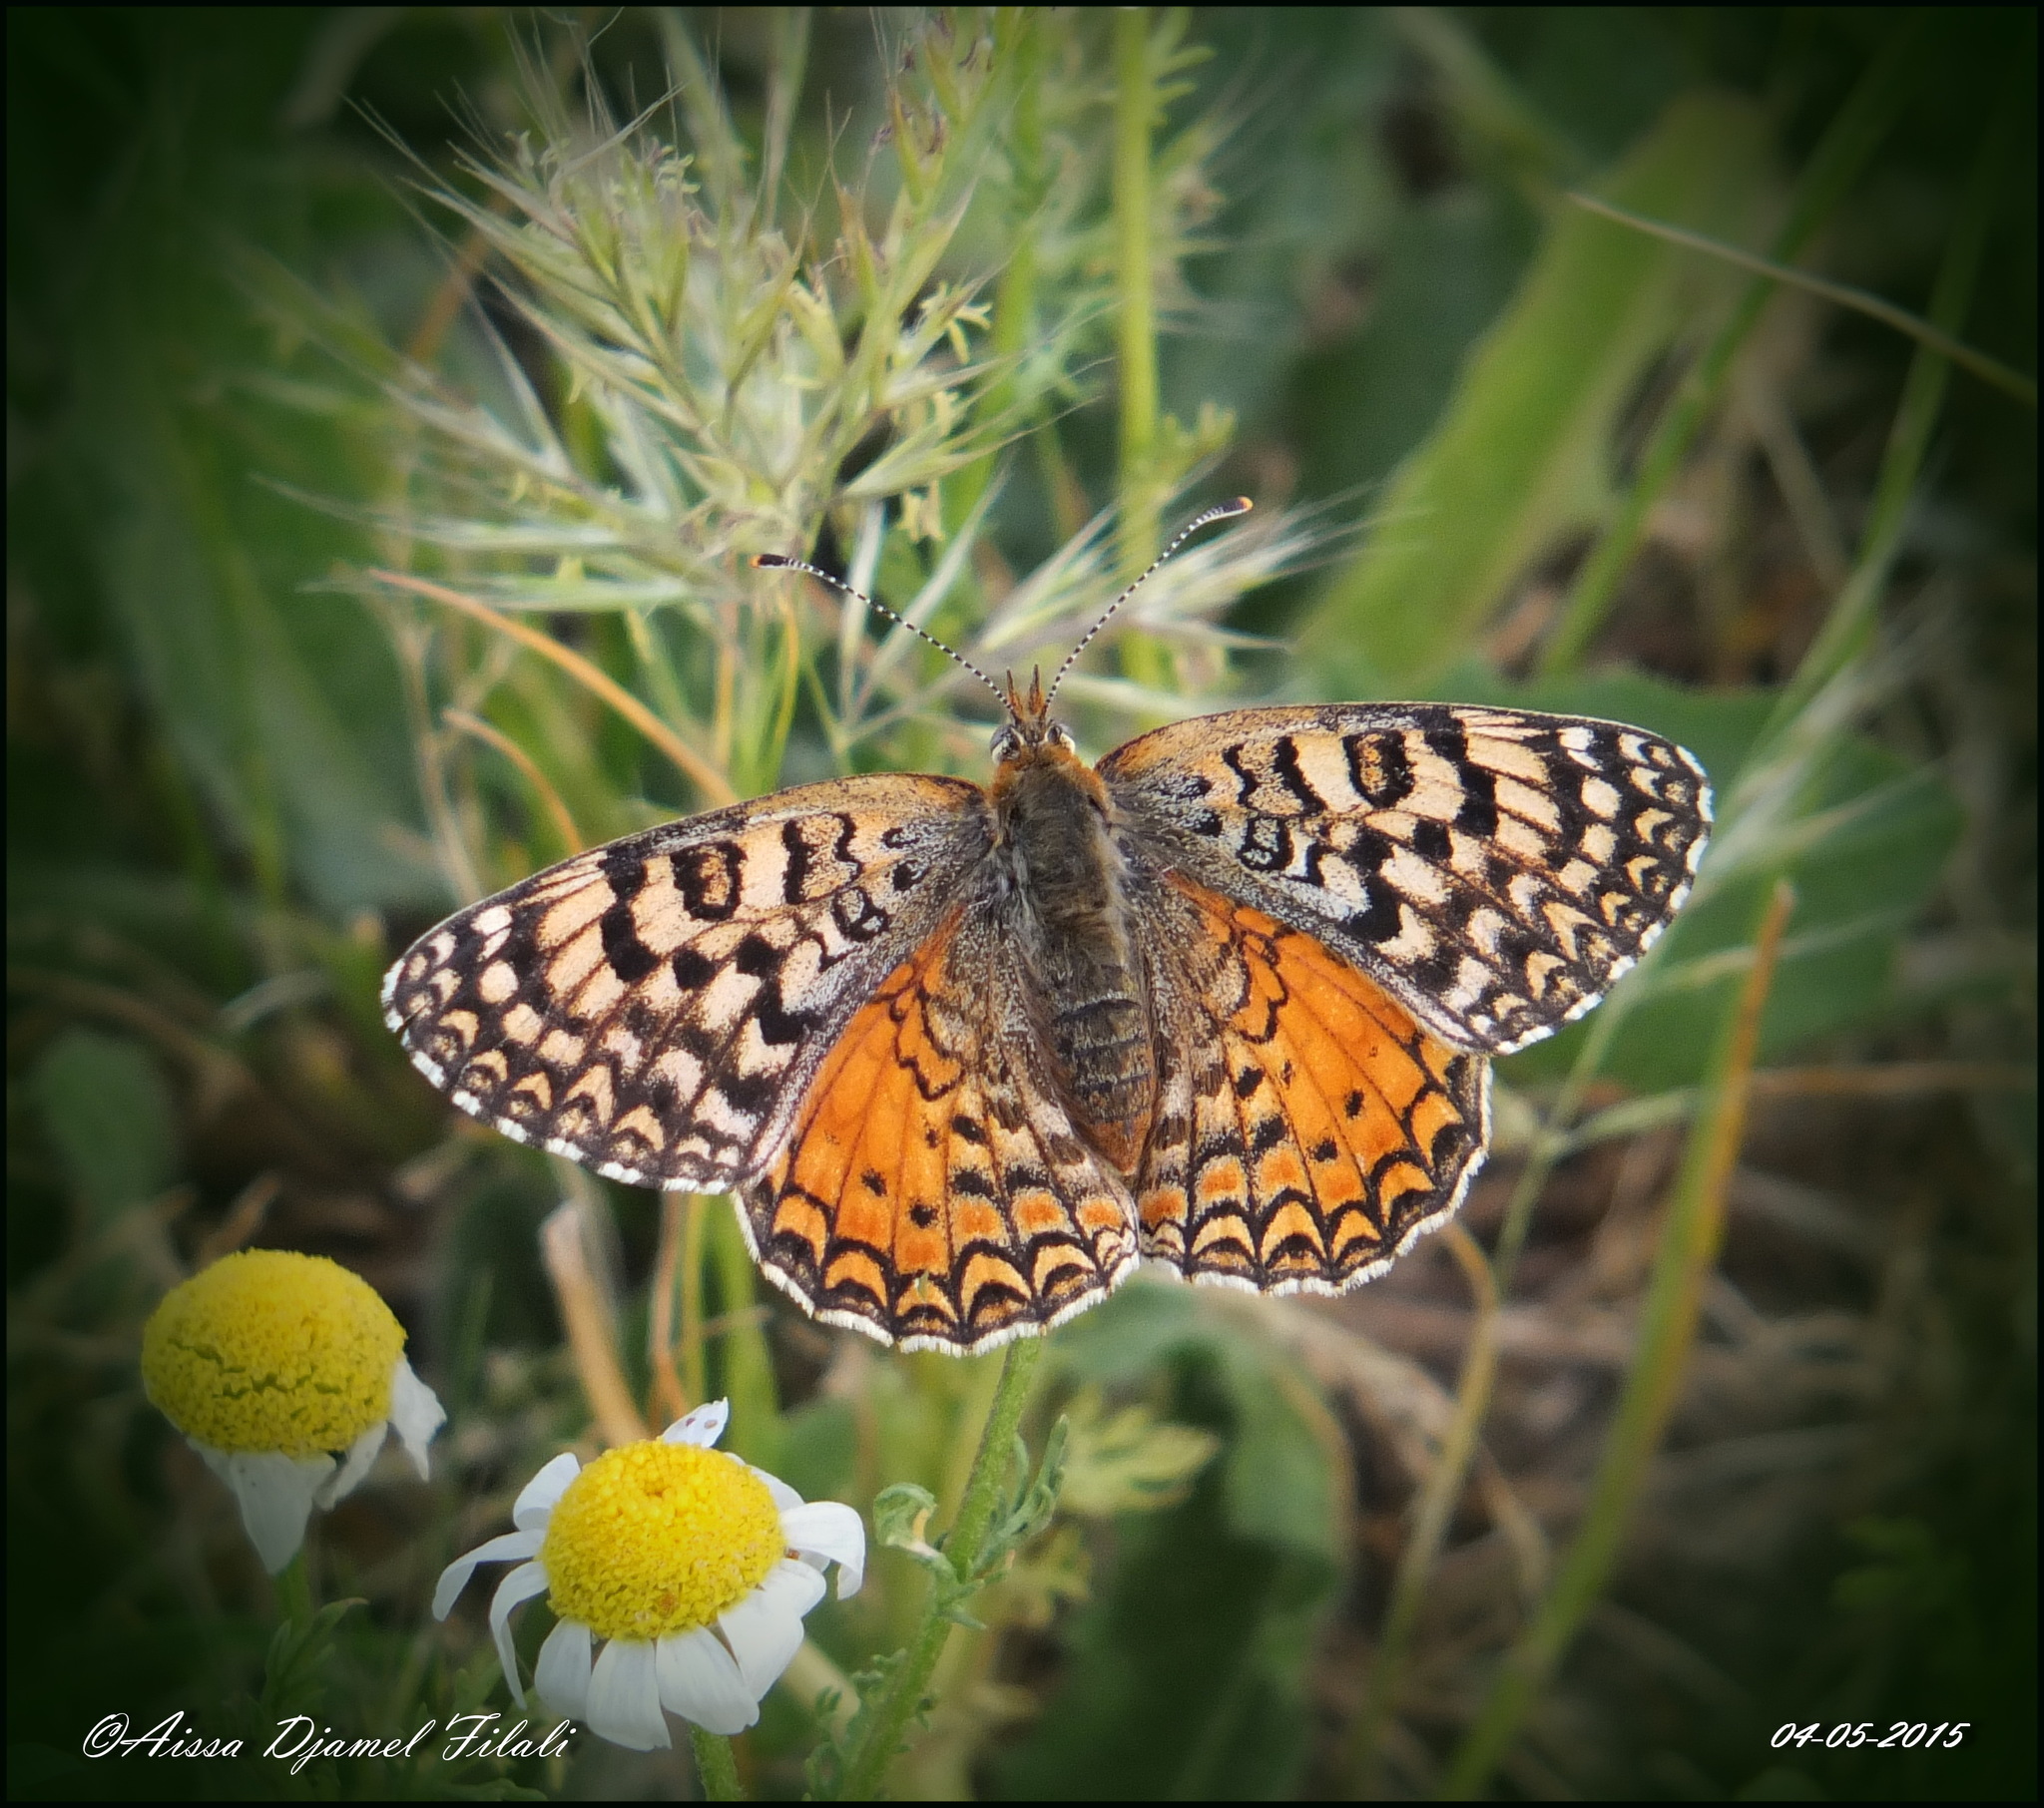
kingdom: Animalia
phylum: Arthropoda
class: Insecta
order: Lepidoptera
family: Nymphalidae
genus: Melitaea
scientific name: Melitaea aetherie
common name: Aetherie fritillary
